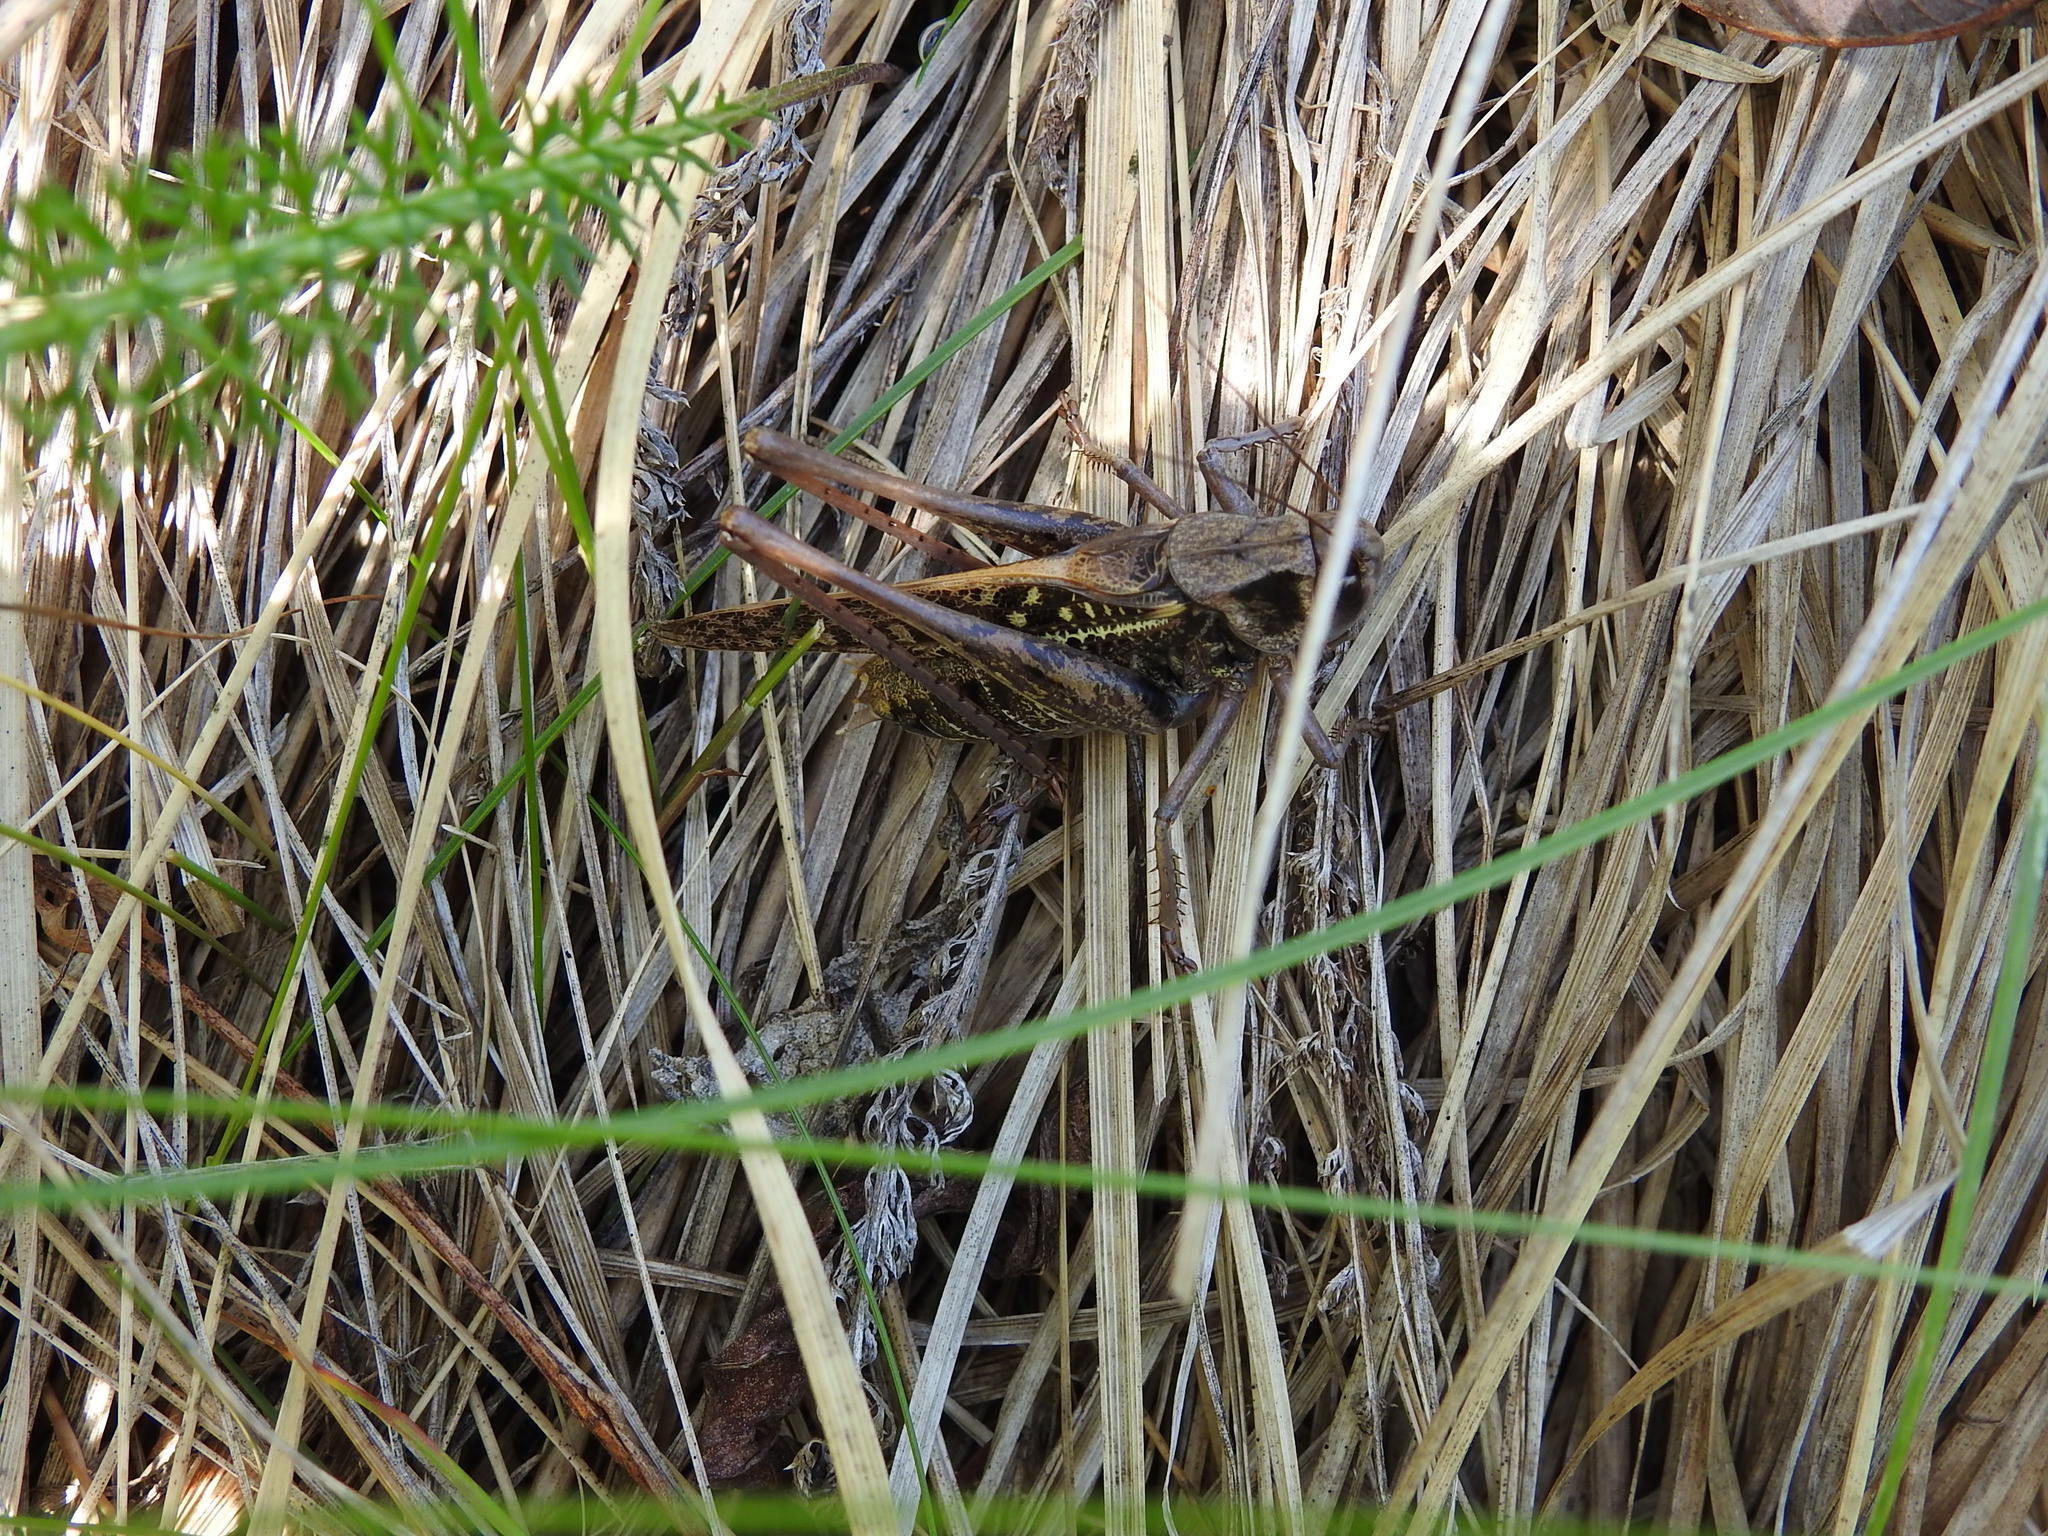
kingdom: Animalia
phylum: Arthropoda
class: Insecta
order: Orthoptera
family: Tettigoniidae
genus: Decticus
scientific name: Decticus verrucivorus
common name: Wart-biter
